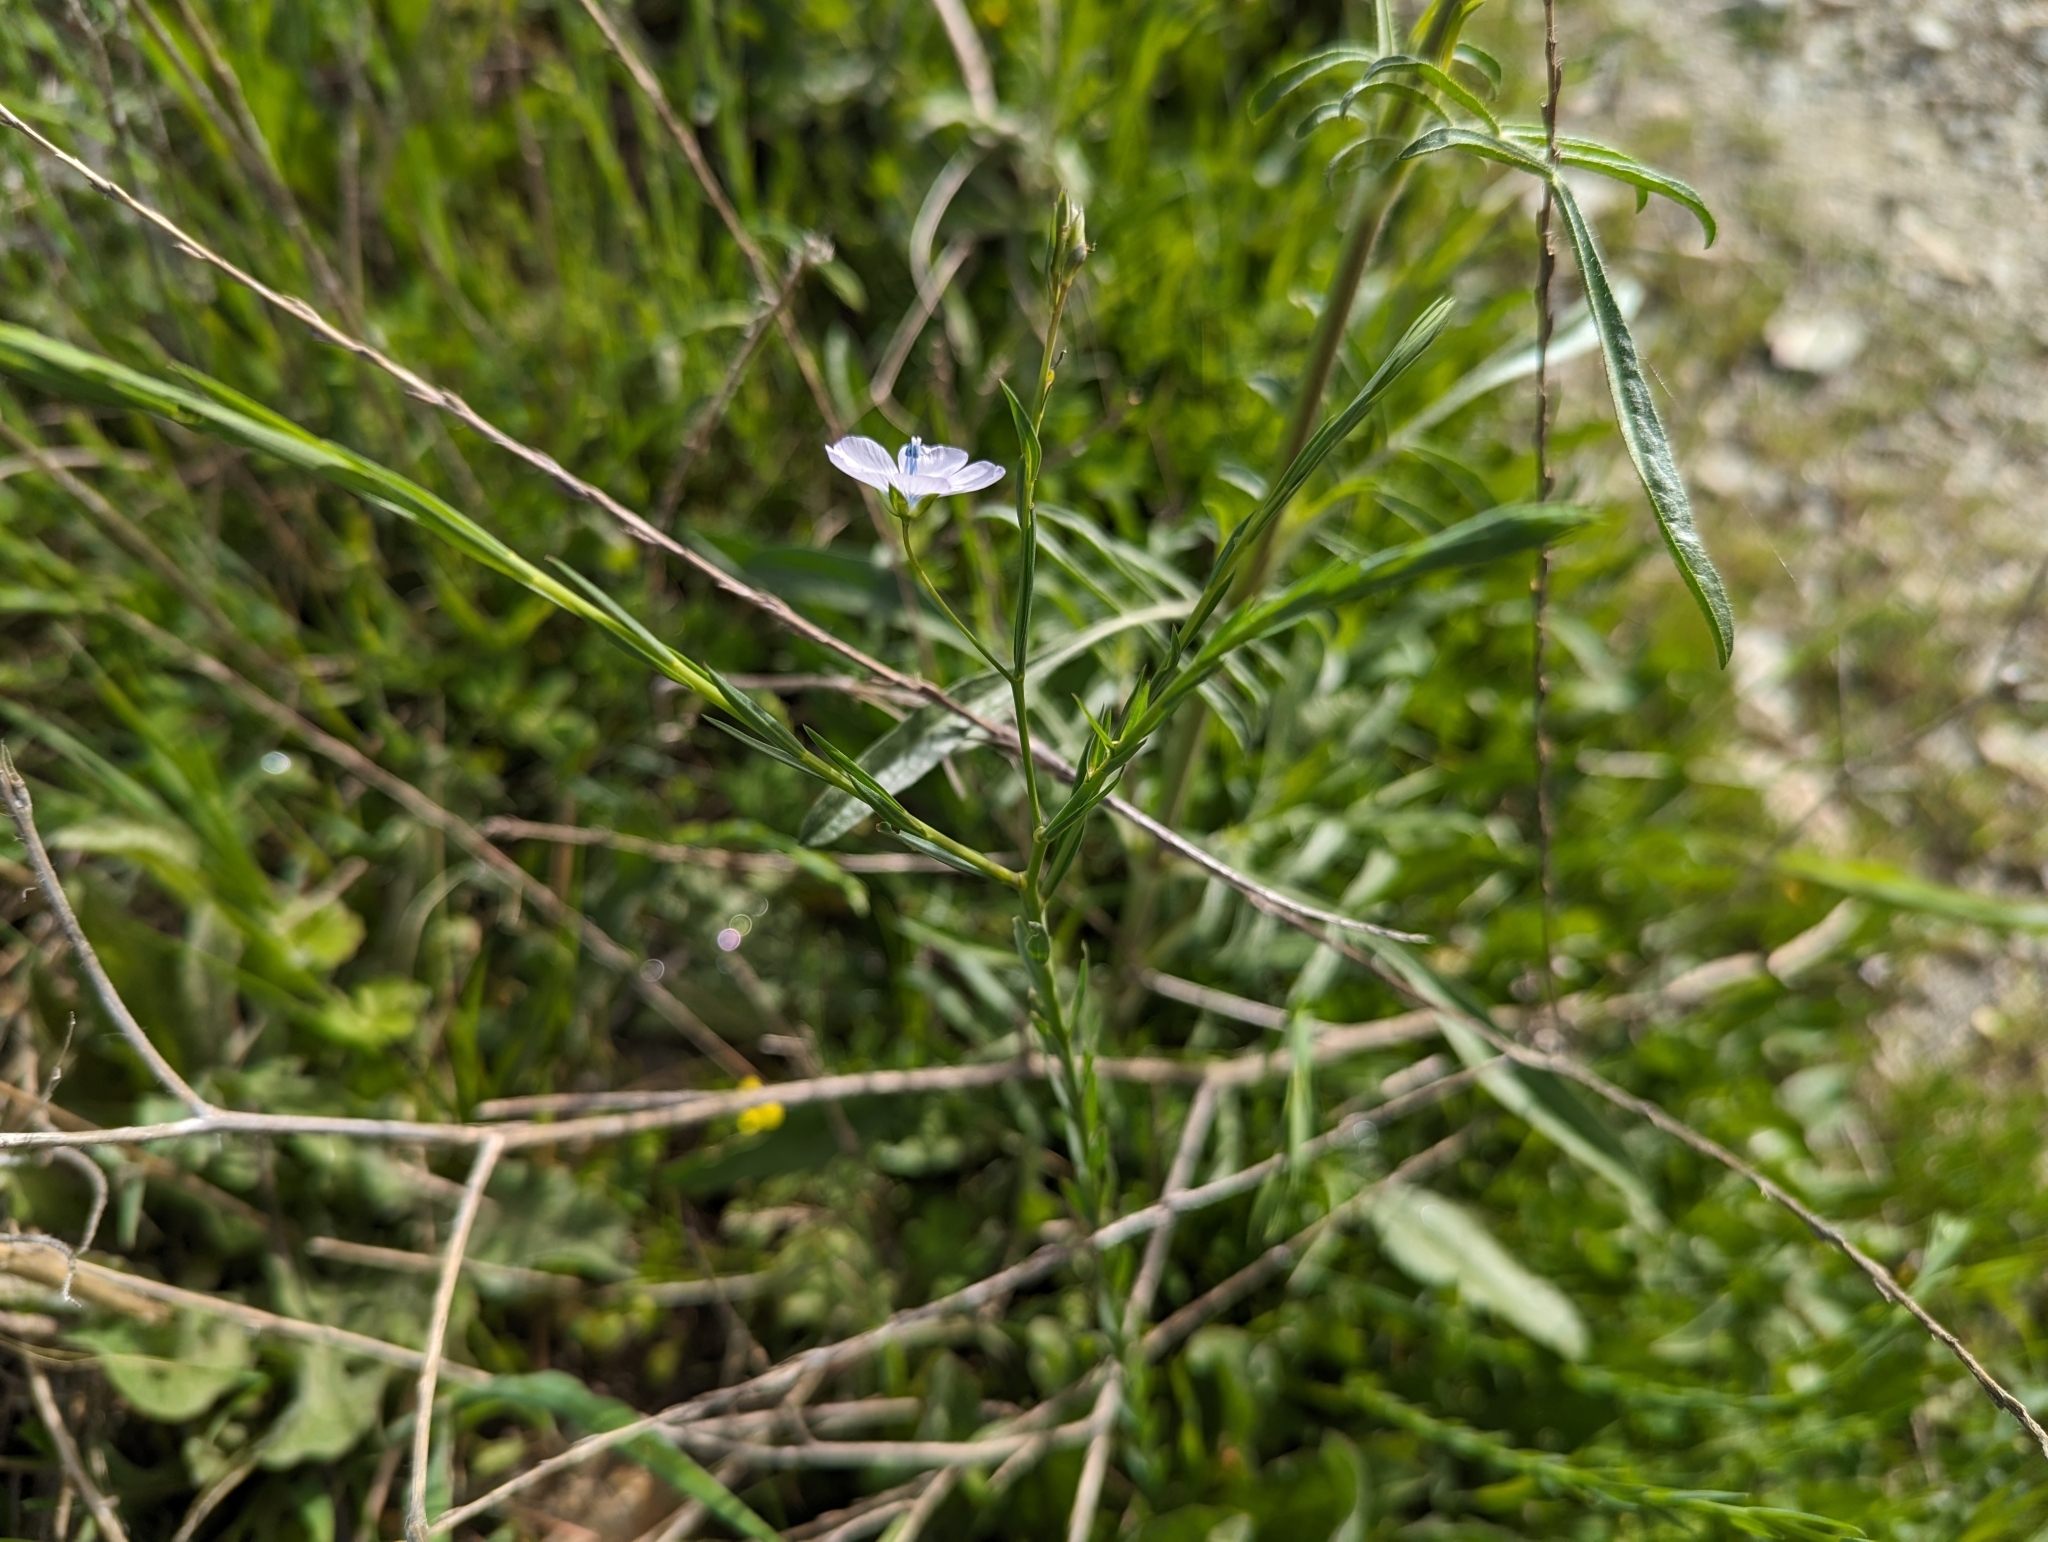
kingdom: Plantae
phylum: Tracheophyta
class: Magnoliopsida
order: Malpighiales
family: Linaceae
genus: Linum
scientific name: Linum bienne
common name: Pale flax
